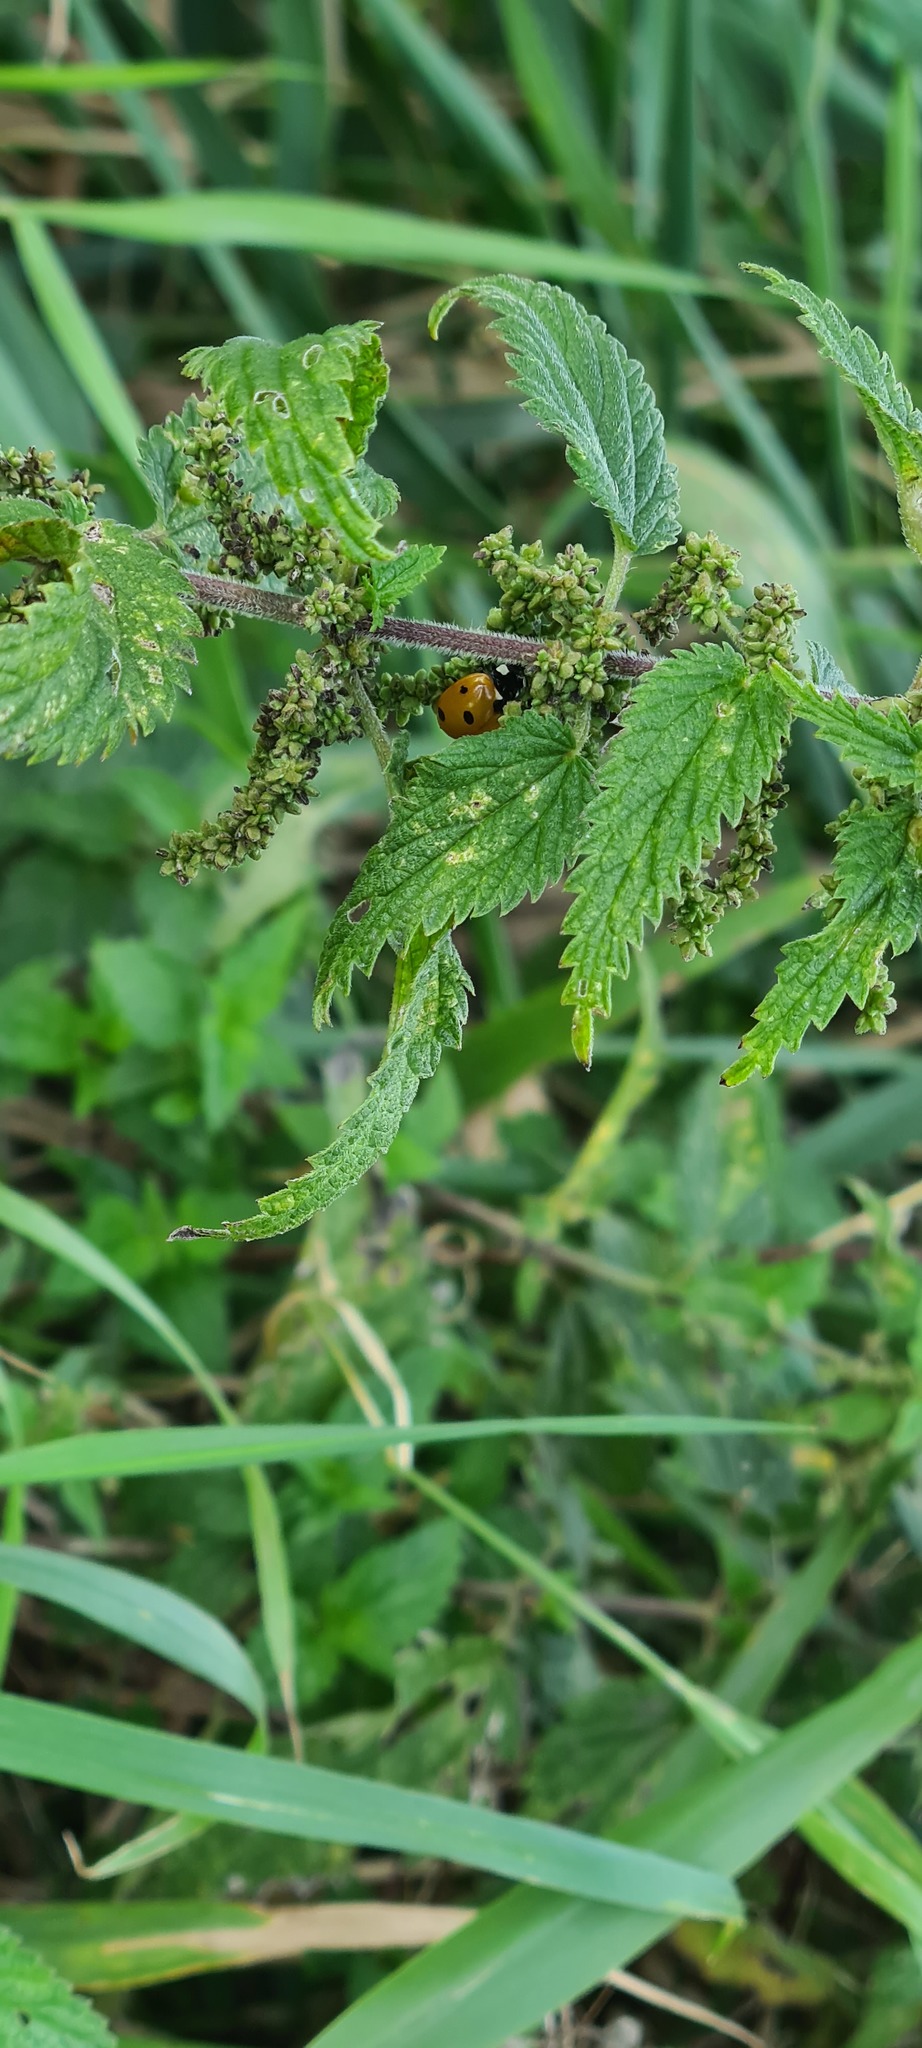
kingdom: Animalia
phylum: Arthropoda
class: Insecta
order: Coleoptera
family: Coccinellidae
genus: Coccinella
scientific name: Coccinella septempunctata
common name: Sevenspotted lady beetle
